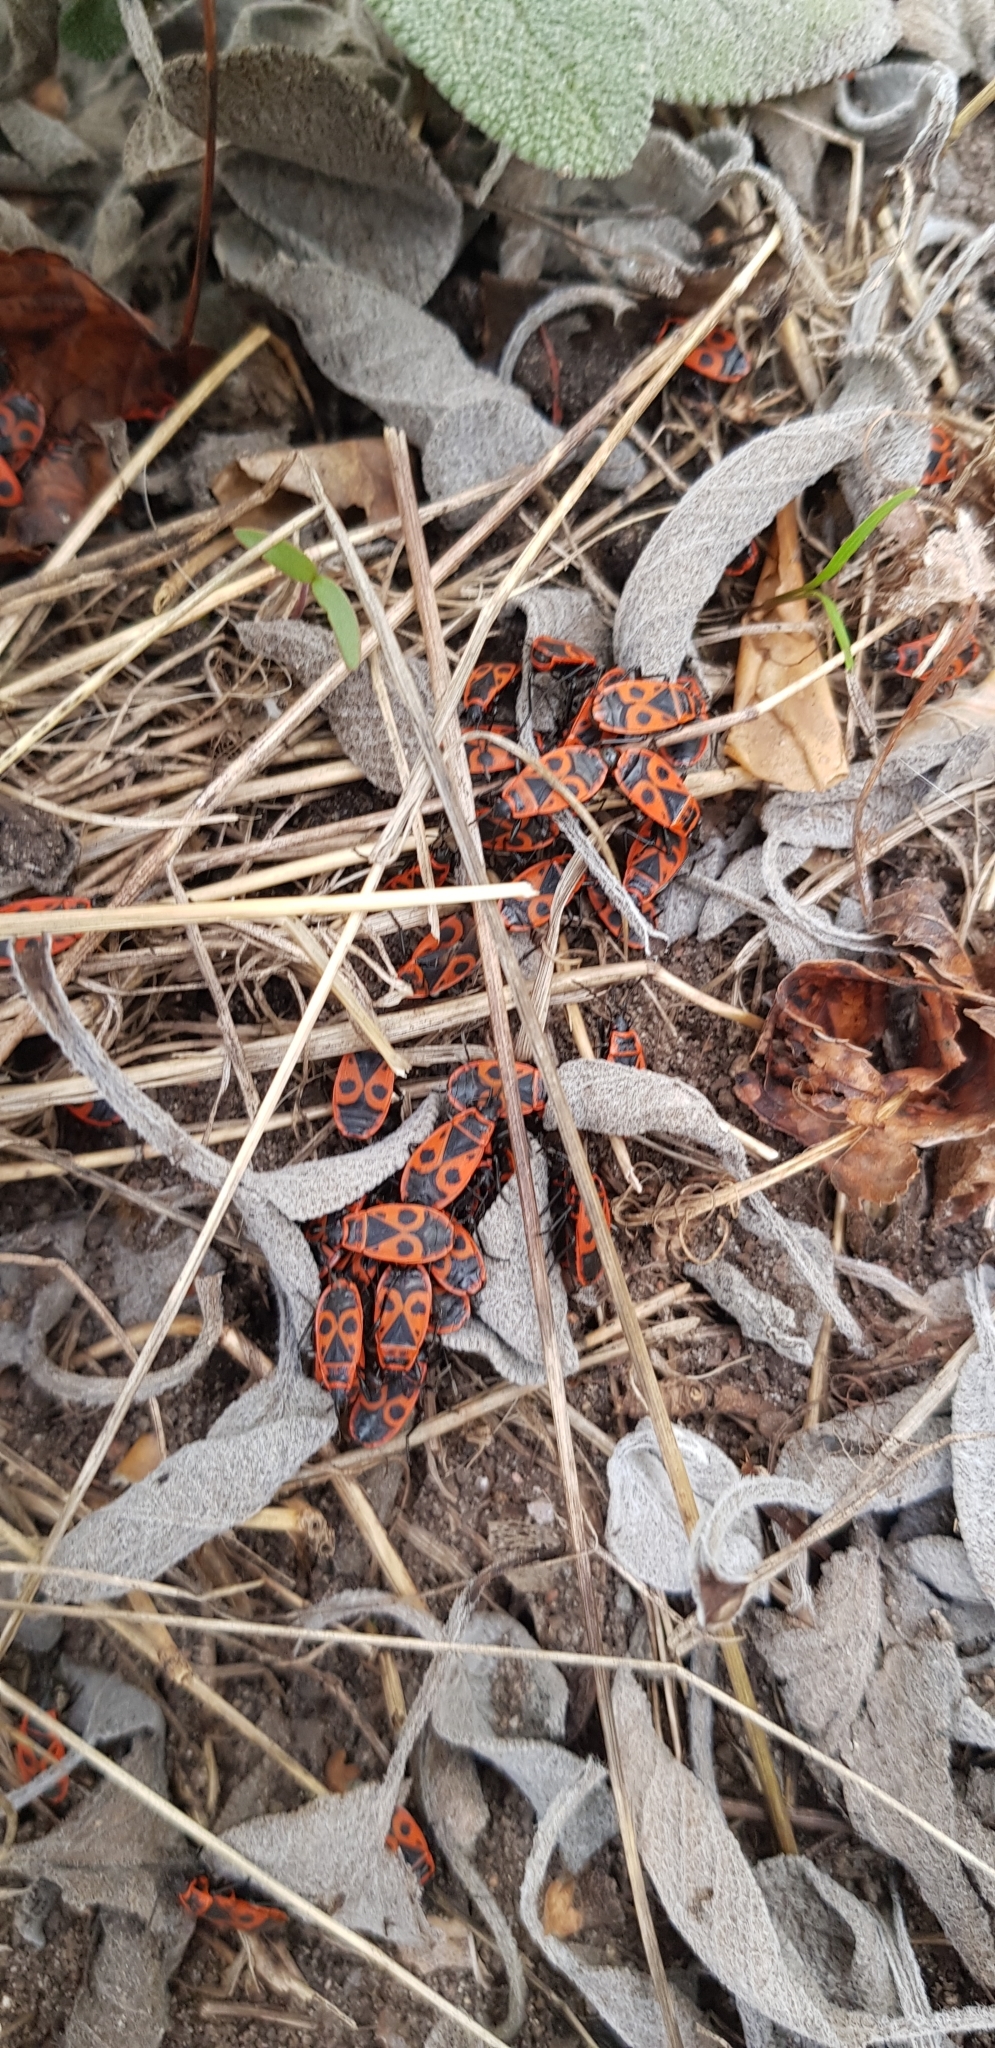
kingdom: Animalia
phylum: Arthropoda
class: Insecta
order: Hemiptera
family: Pyrrhocoridae
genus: Pyrrhocoris
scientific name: Pyrrhocoris apterus
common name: Firebug
